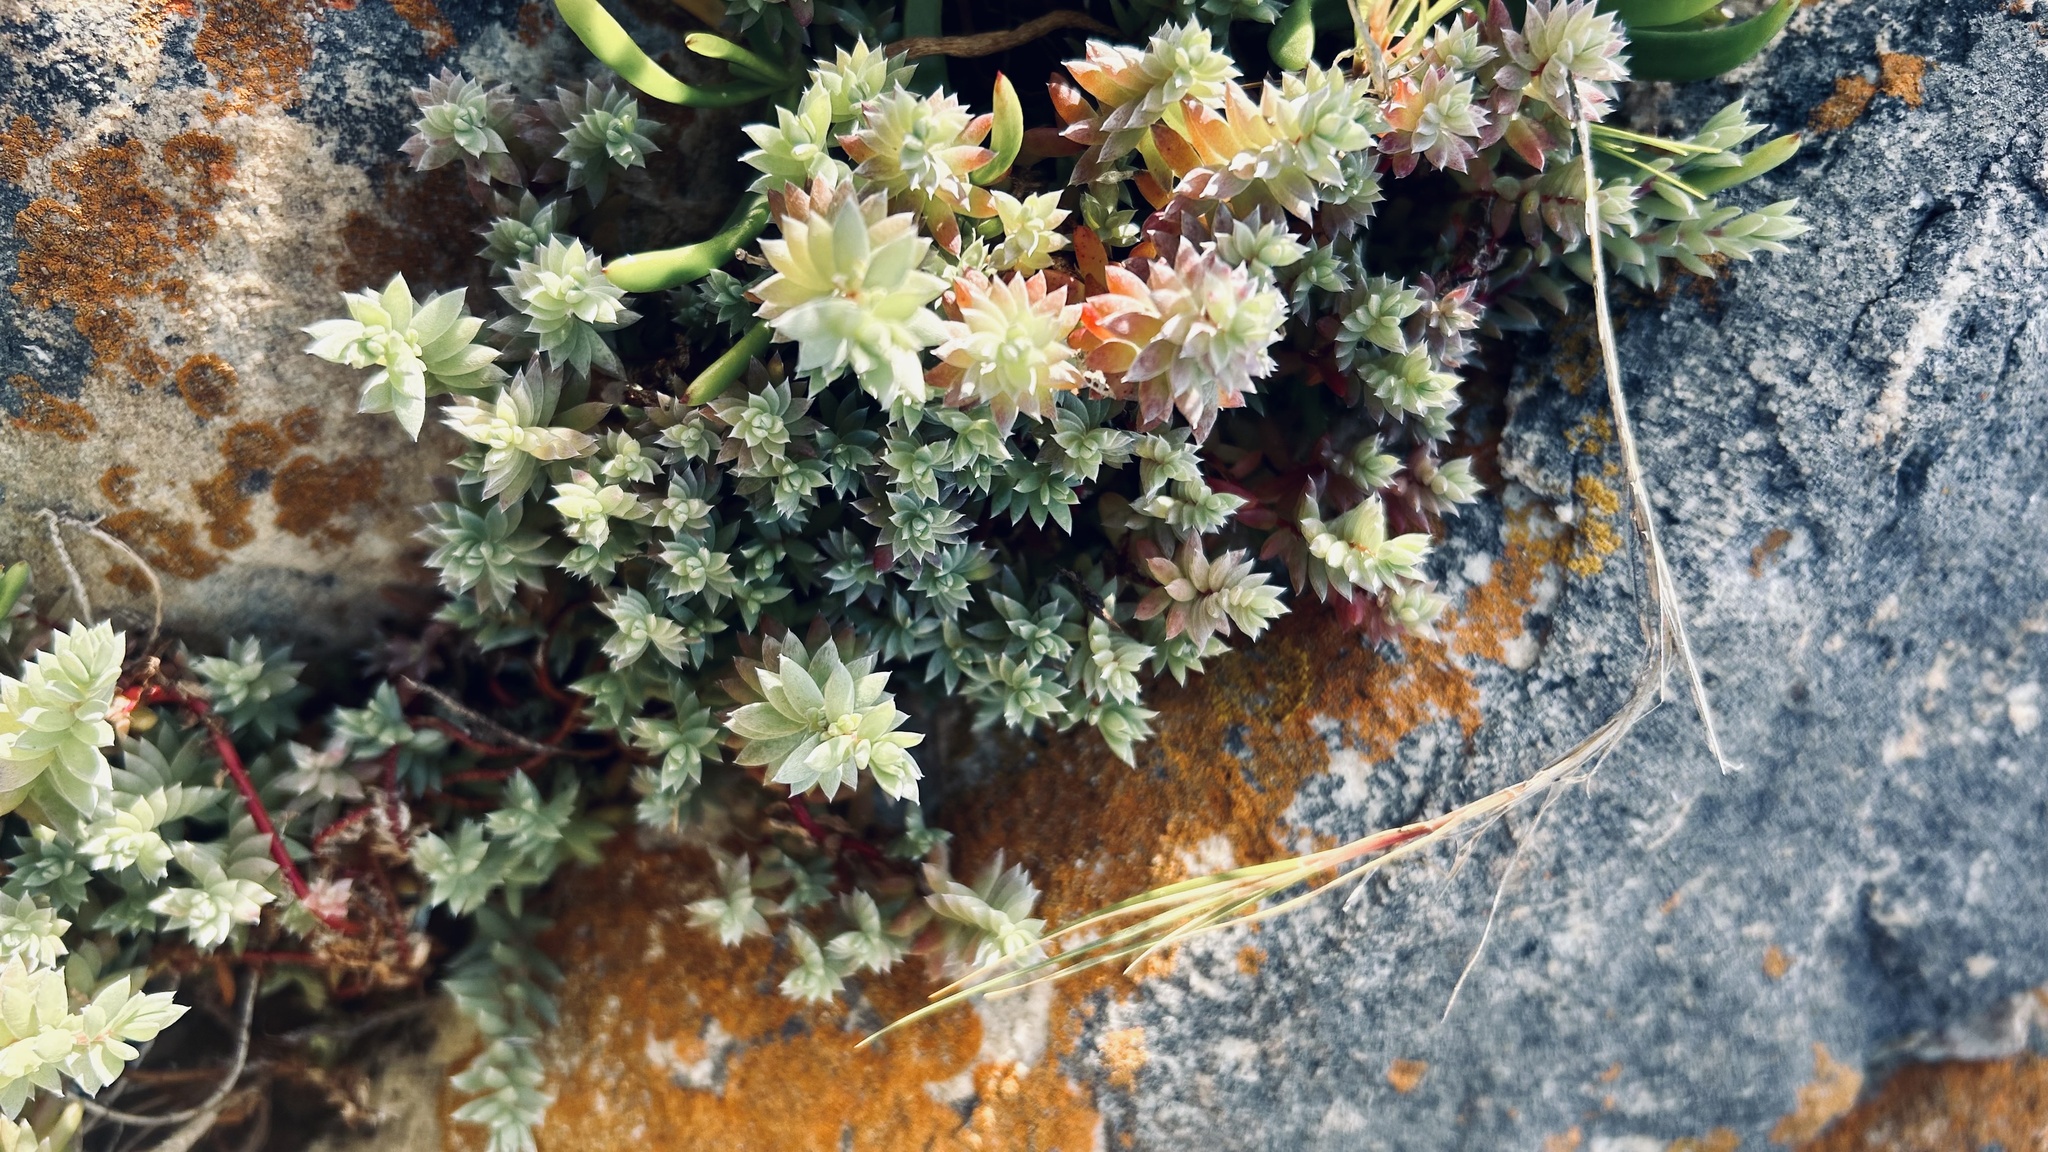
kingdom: Plantae
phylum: Tracheophyta
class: Magnoliopsida
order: Caryophyllales
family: Amaranthaceae
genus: Chenolea
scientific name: Chenolea diffusa
